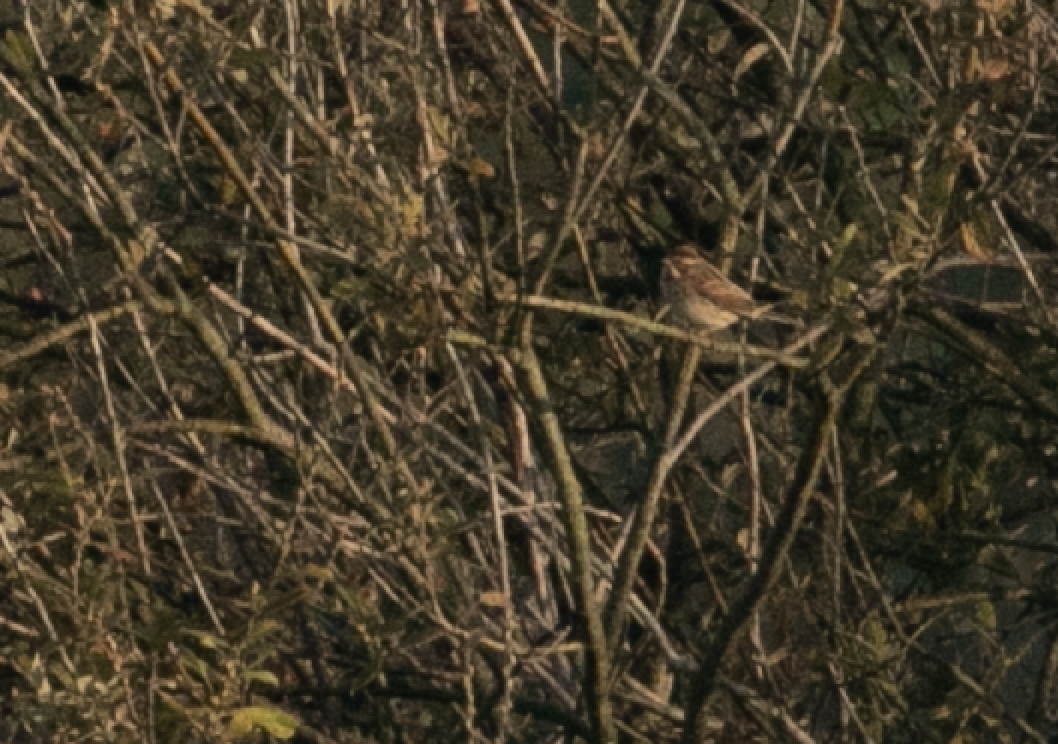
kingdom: Animalia
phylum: Chordata
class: Aves
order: Passeriformes
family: Emberizidae
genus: Emberiza
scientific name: Emberiza schoeniclus
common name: Reed bunting
